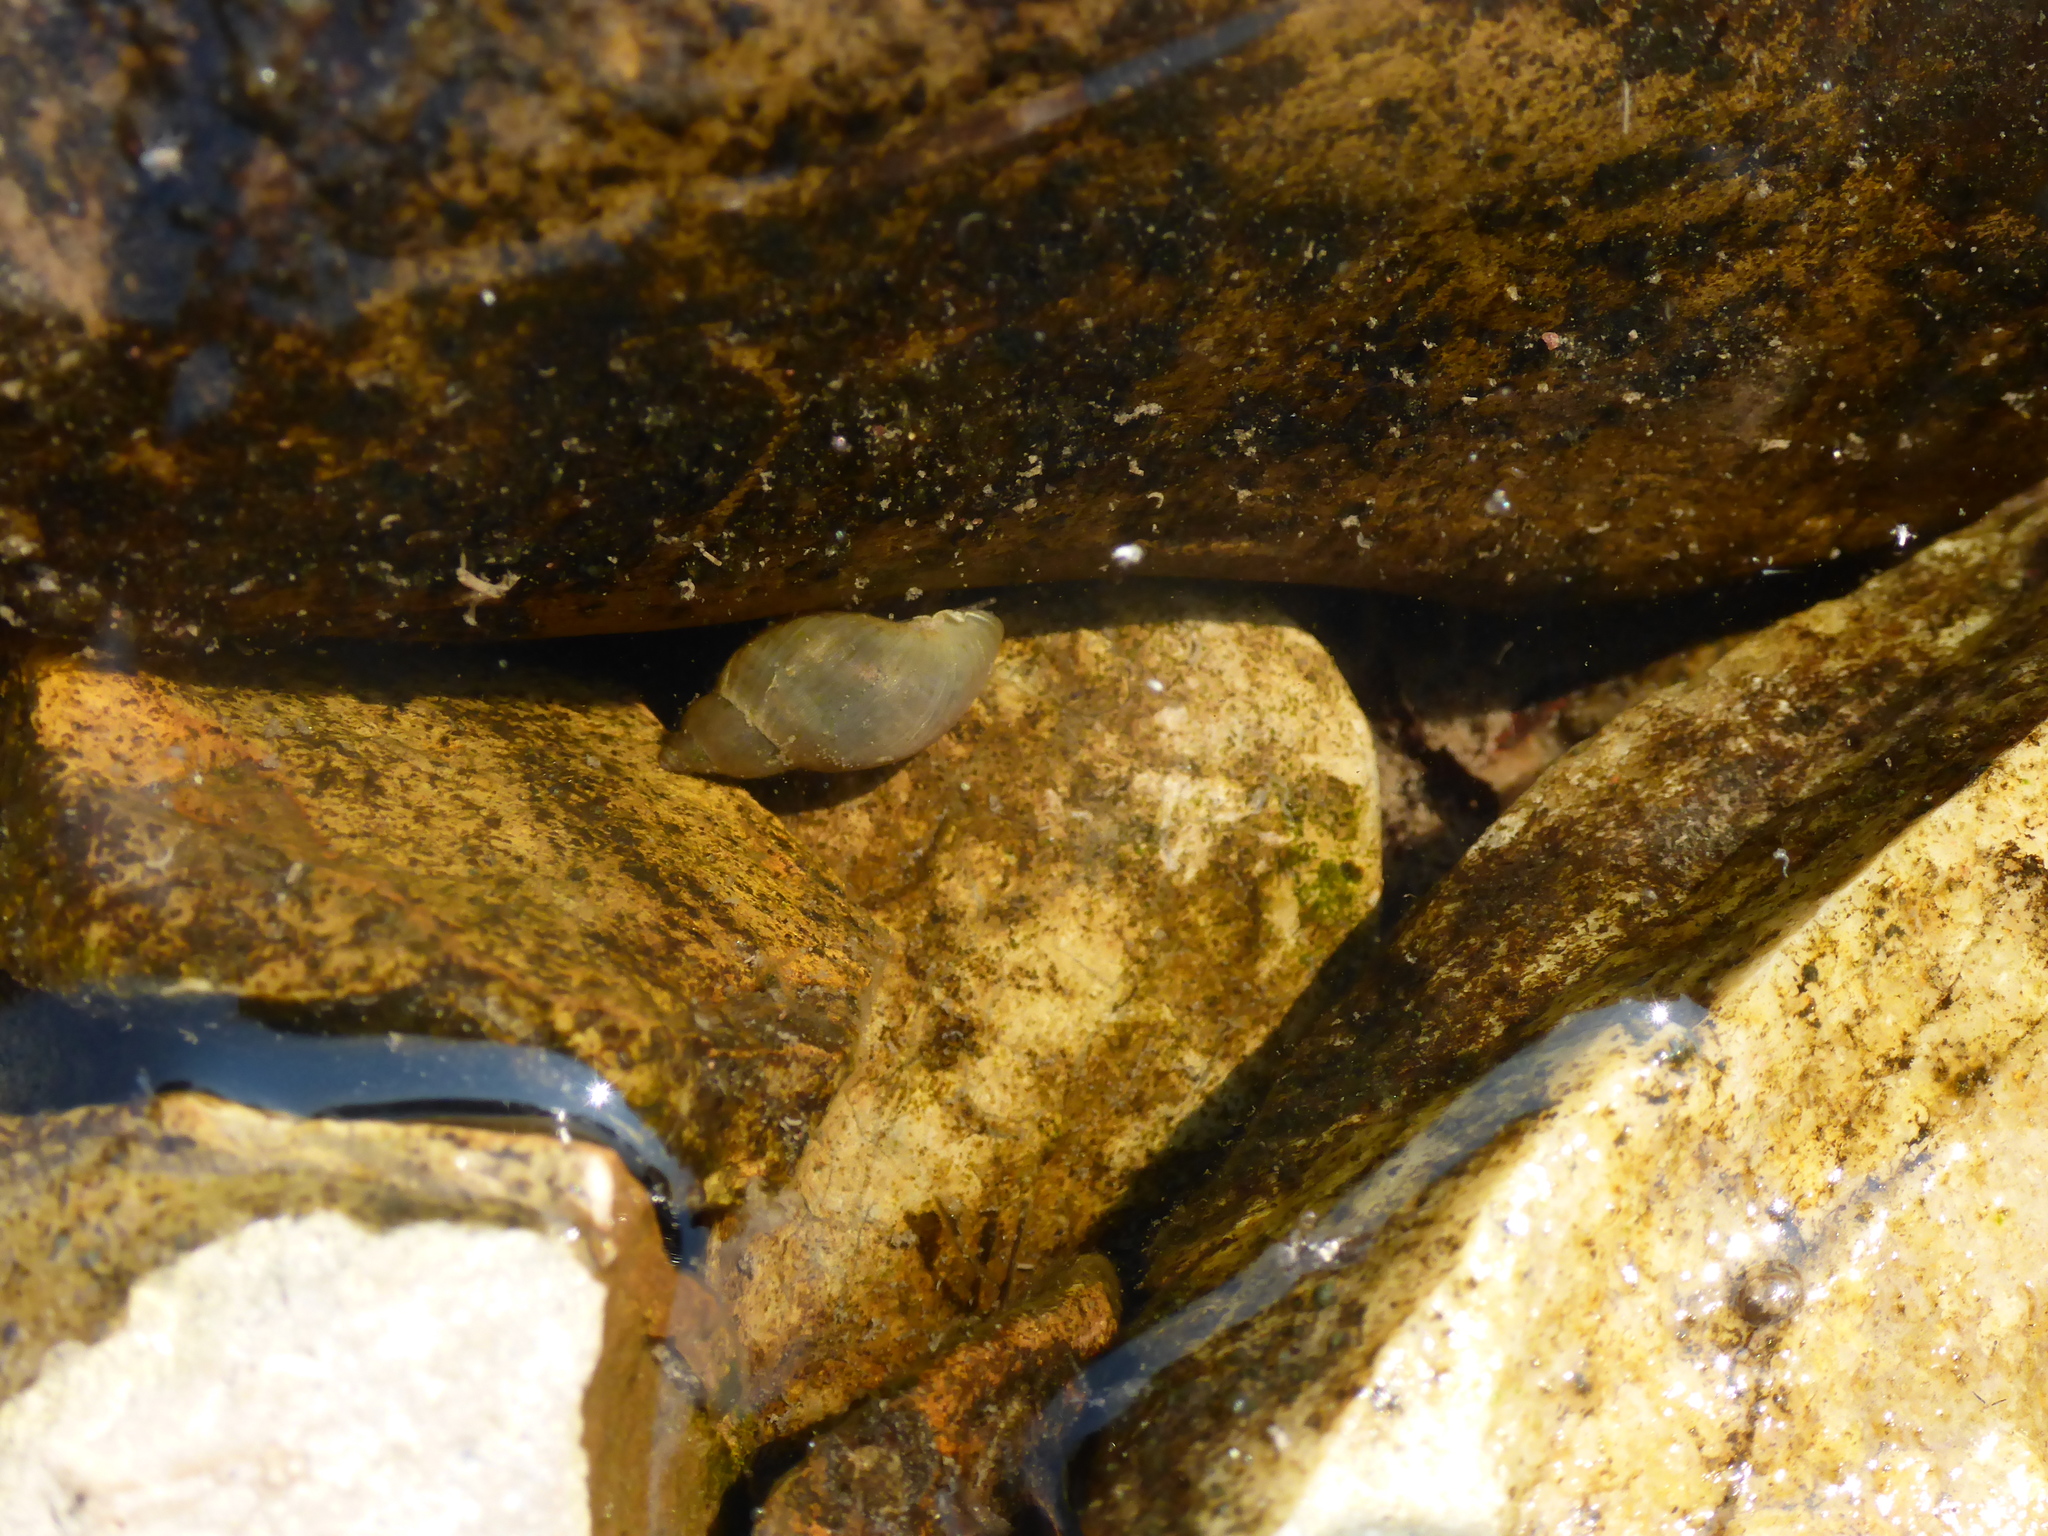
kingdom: Animalia
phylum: Mollusca
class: Gastropoda
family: Lymnaeidae
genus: Lymnaea
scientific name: Lymnaea stagnalis
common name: Great pond snail
